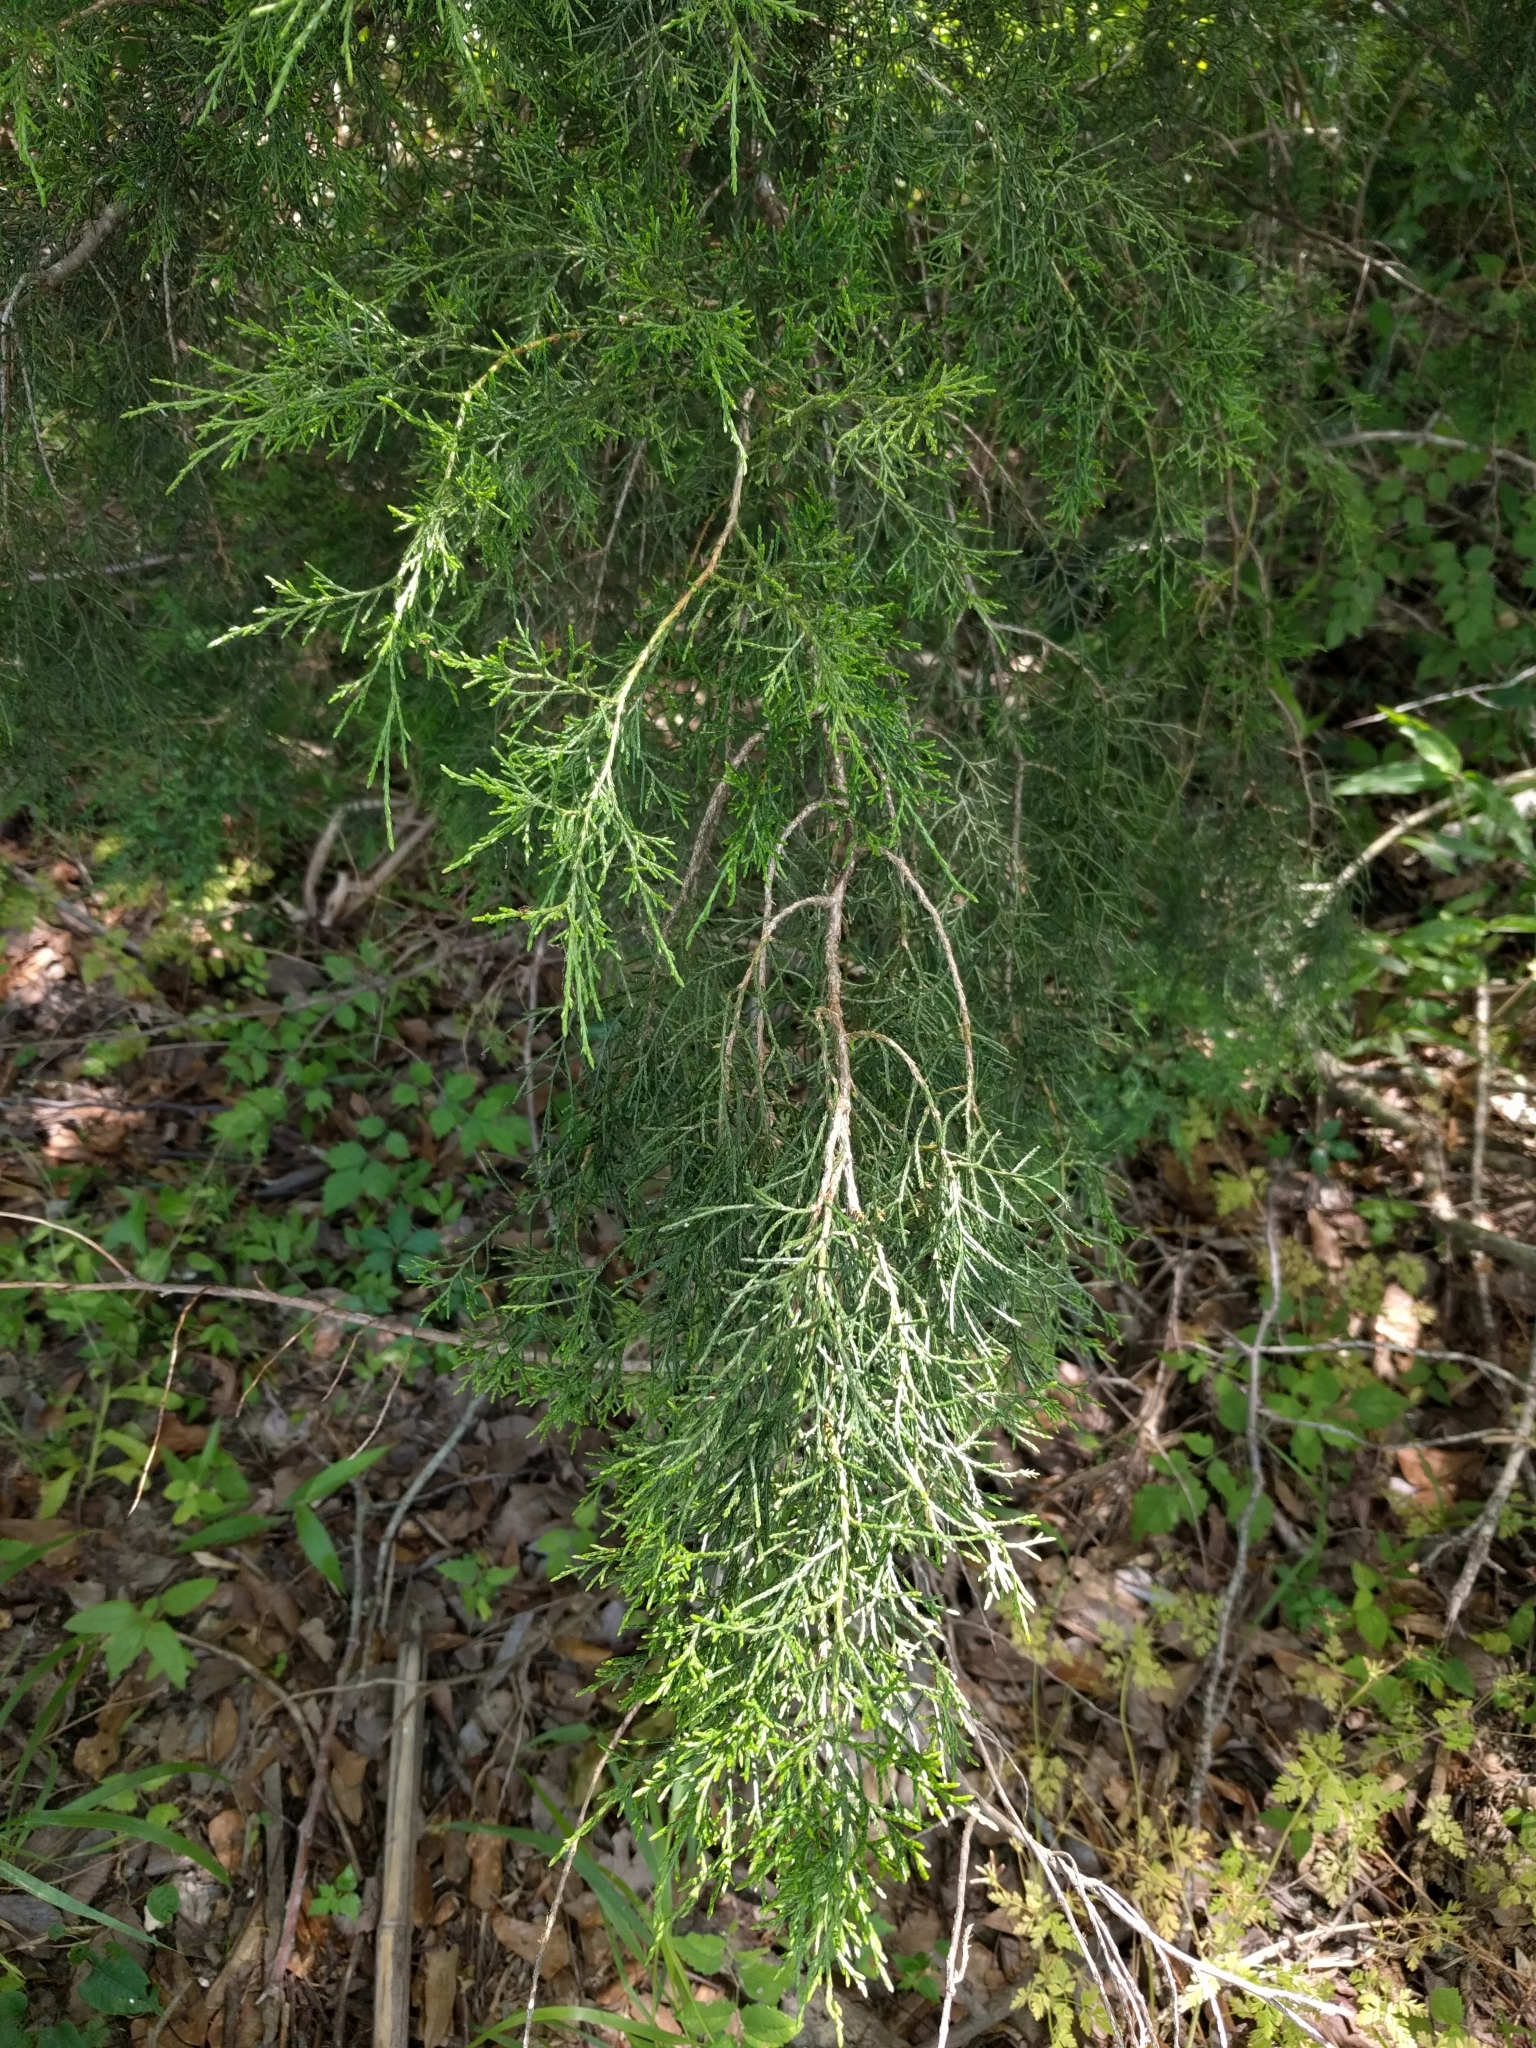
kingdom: Plantae
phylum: Tracheophyta
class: Pinopsida
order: Pinales
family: Cupressaceae
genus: Juniperus
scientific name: Juniperus virginiana
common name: Red juniper
